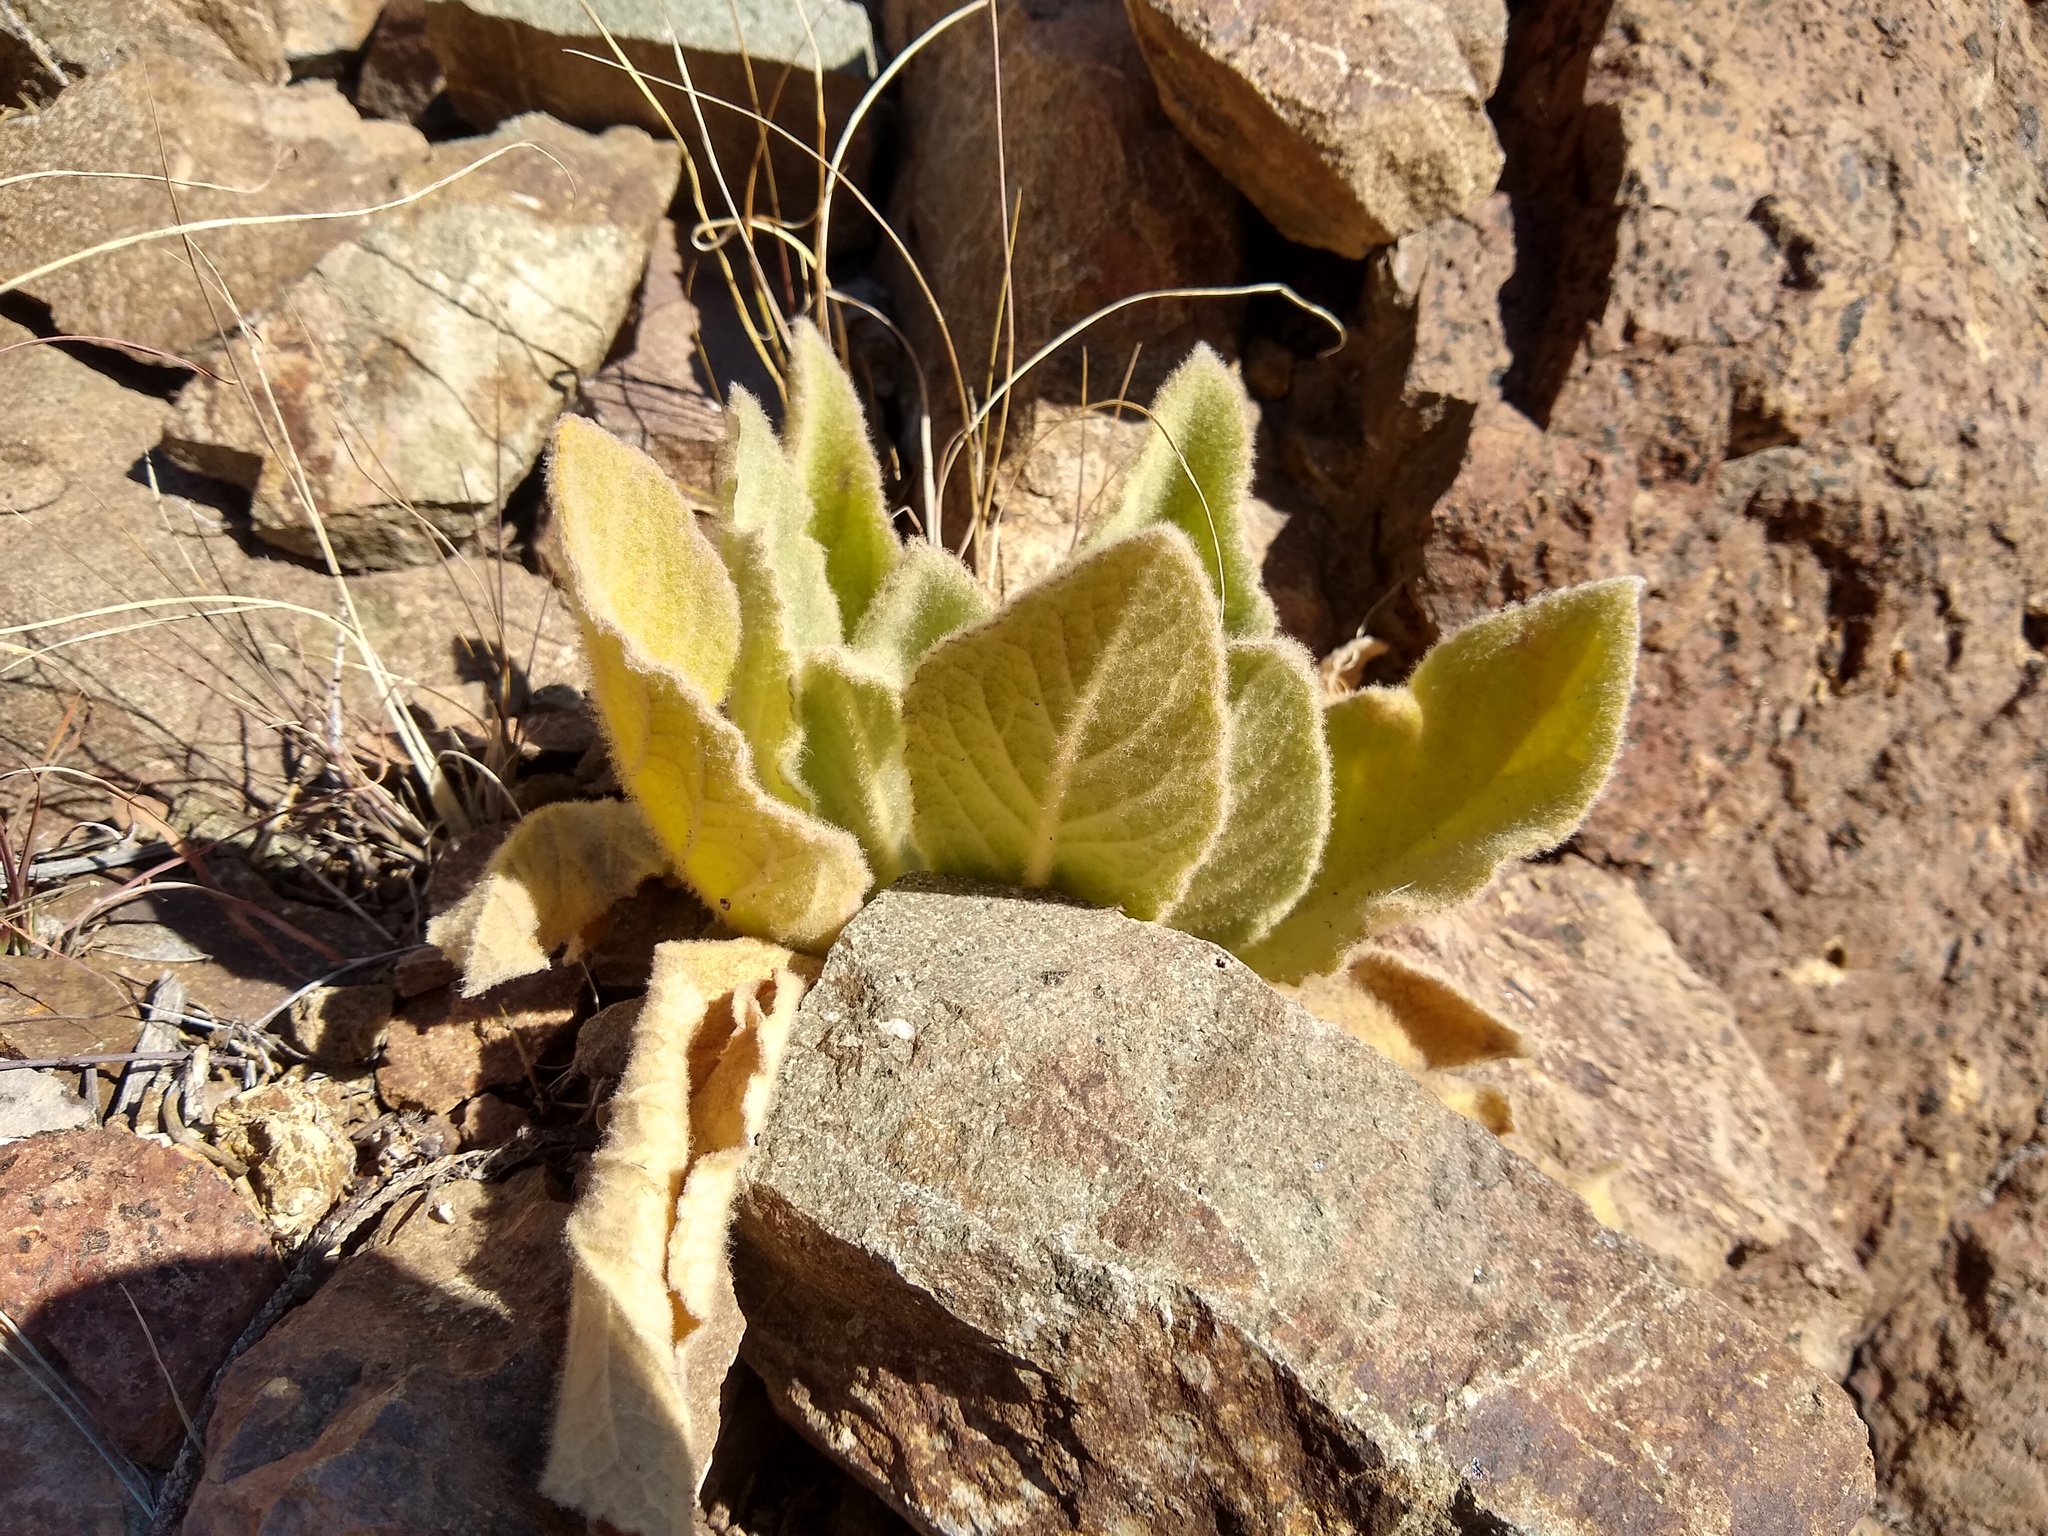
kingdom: Plantae
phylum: Tracheophyta
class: Magnoliopsida
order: Lamiales
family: Scrophulariaceae
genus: Verbascum
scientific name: Verbascum thapsus
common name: Common mullein
